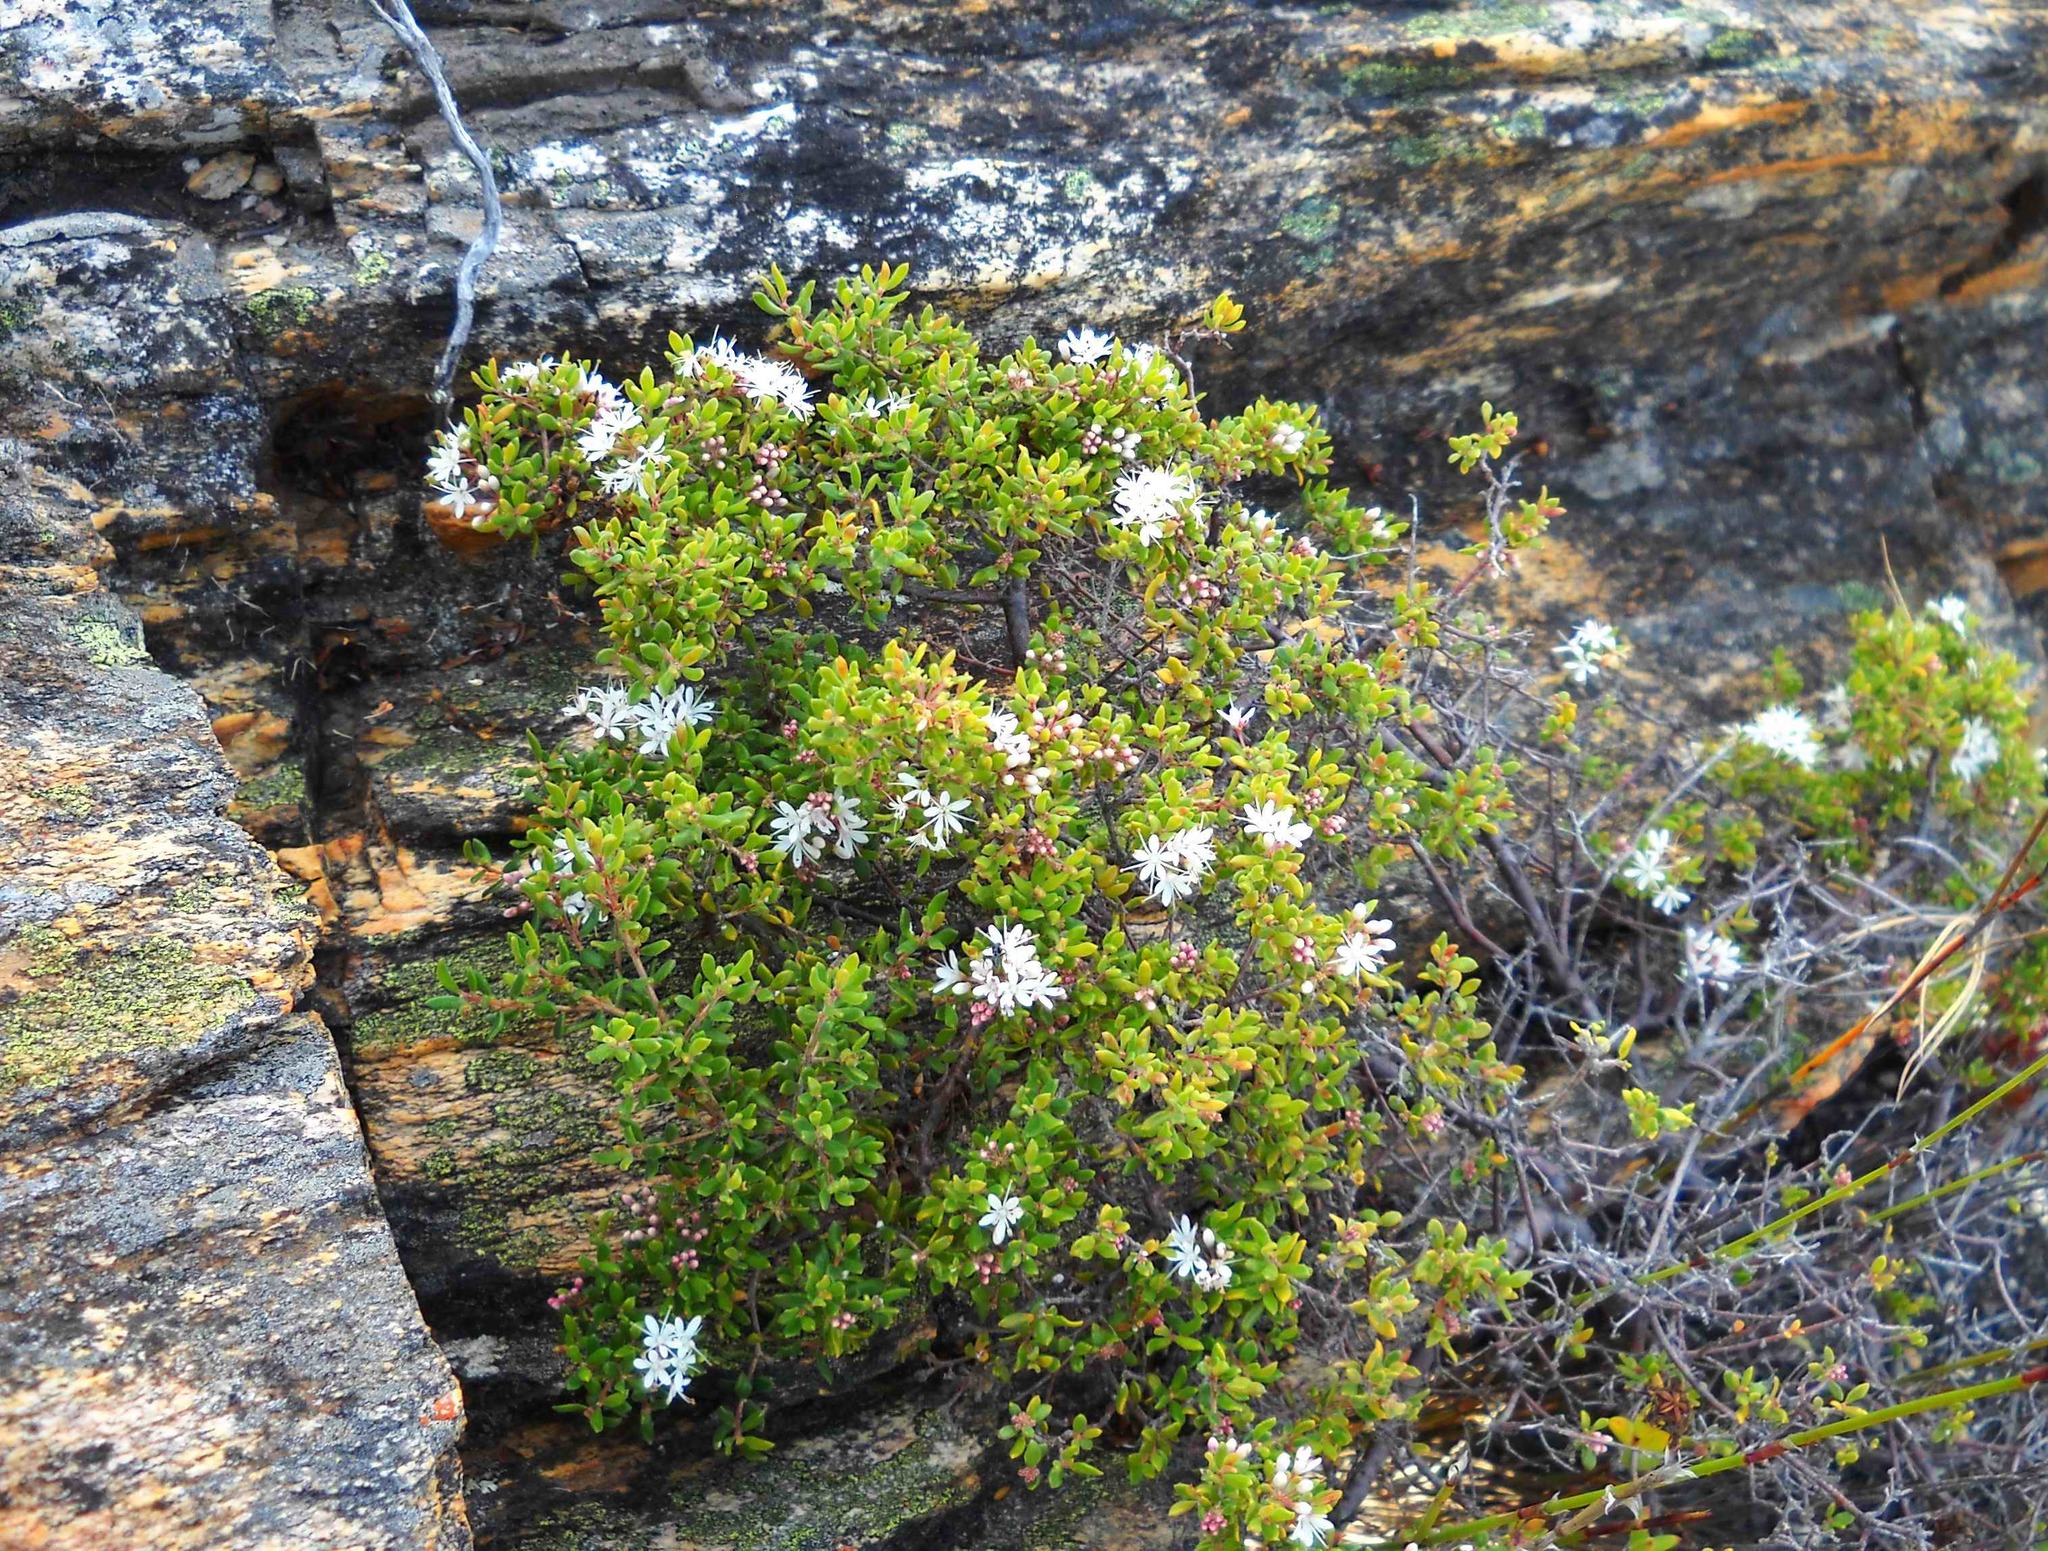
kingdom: Plantae
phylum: Tracheophyta
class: Magnoliopsida
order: Sapindales
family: Rutaceae
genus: Agathosma
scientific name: Agathosma mundtii
